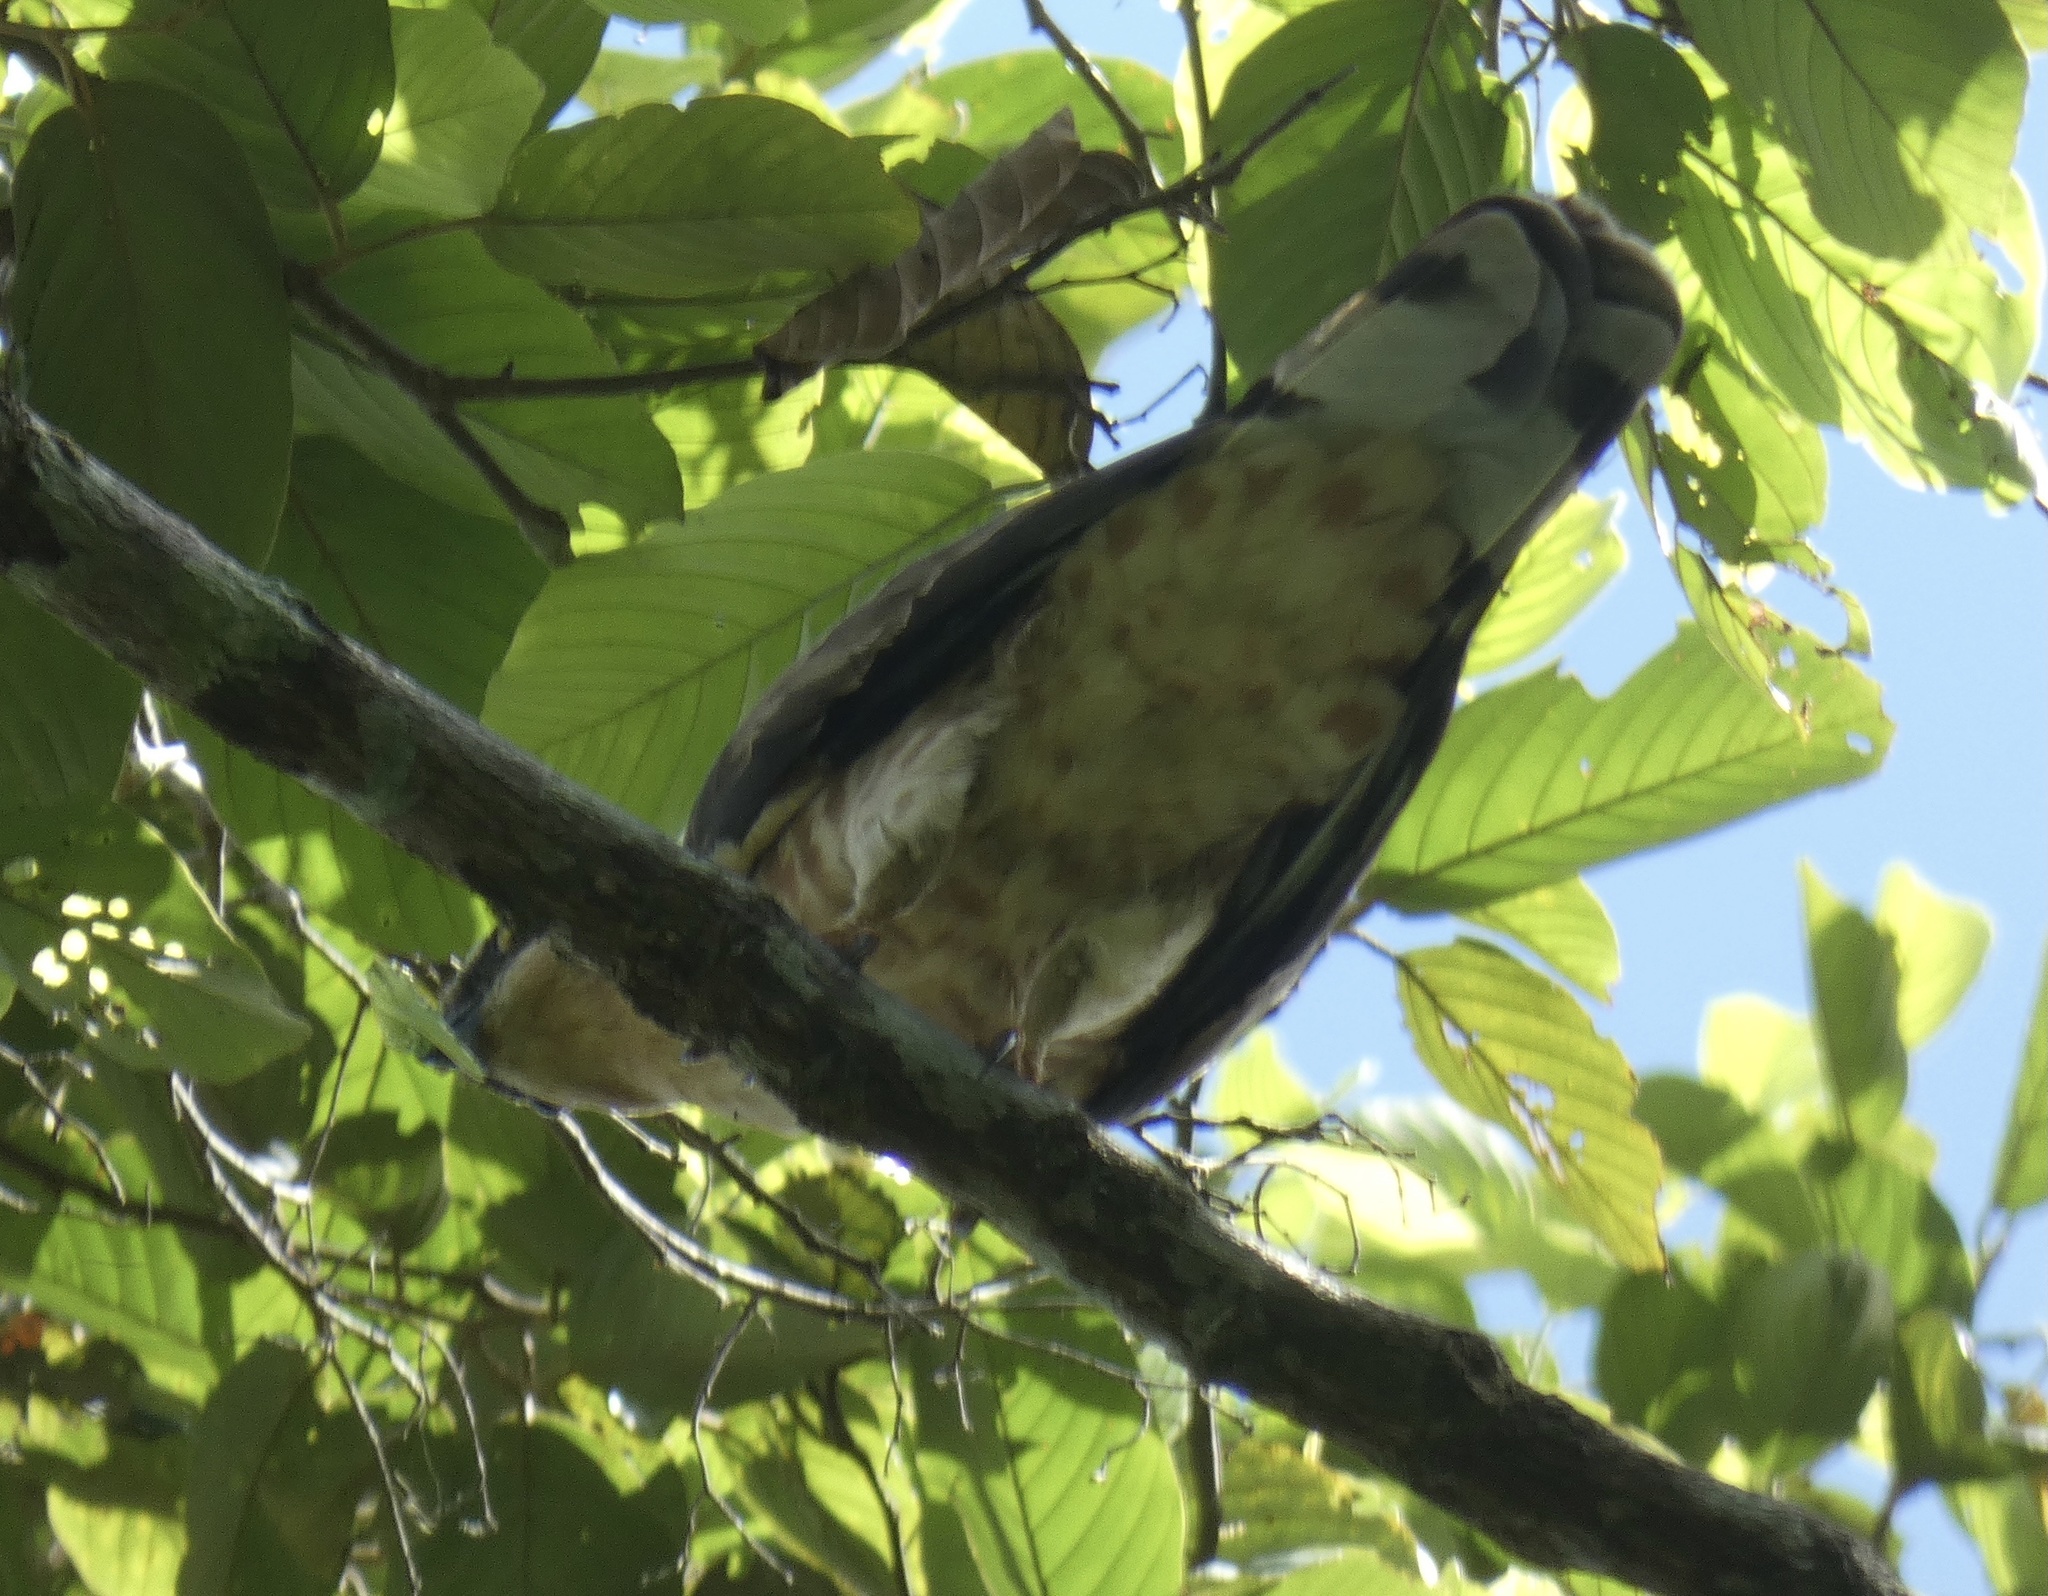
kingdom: Animalia
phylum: Chordata
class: Aves
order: Accipitriformes
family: Accipitridae
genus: Aviceda
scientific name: Aviceda jerdoni
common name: Jerdon's baza
